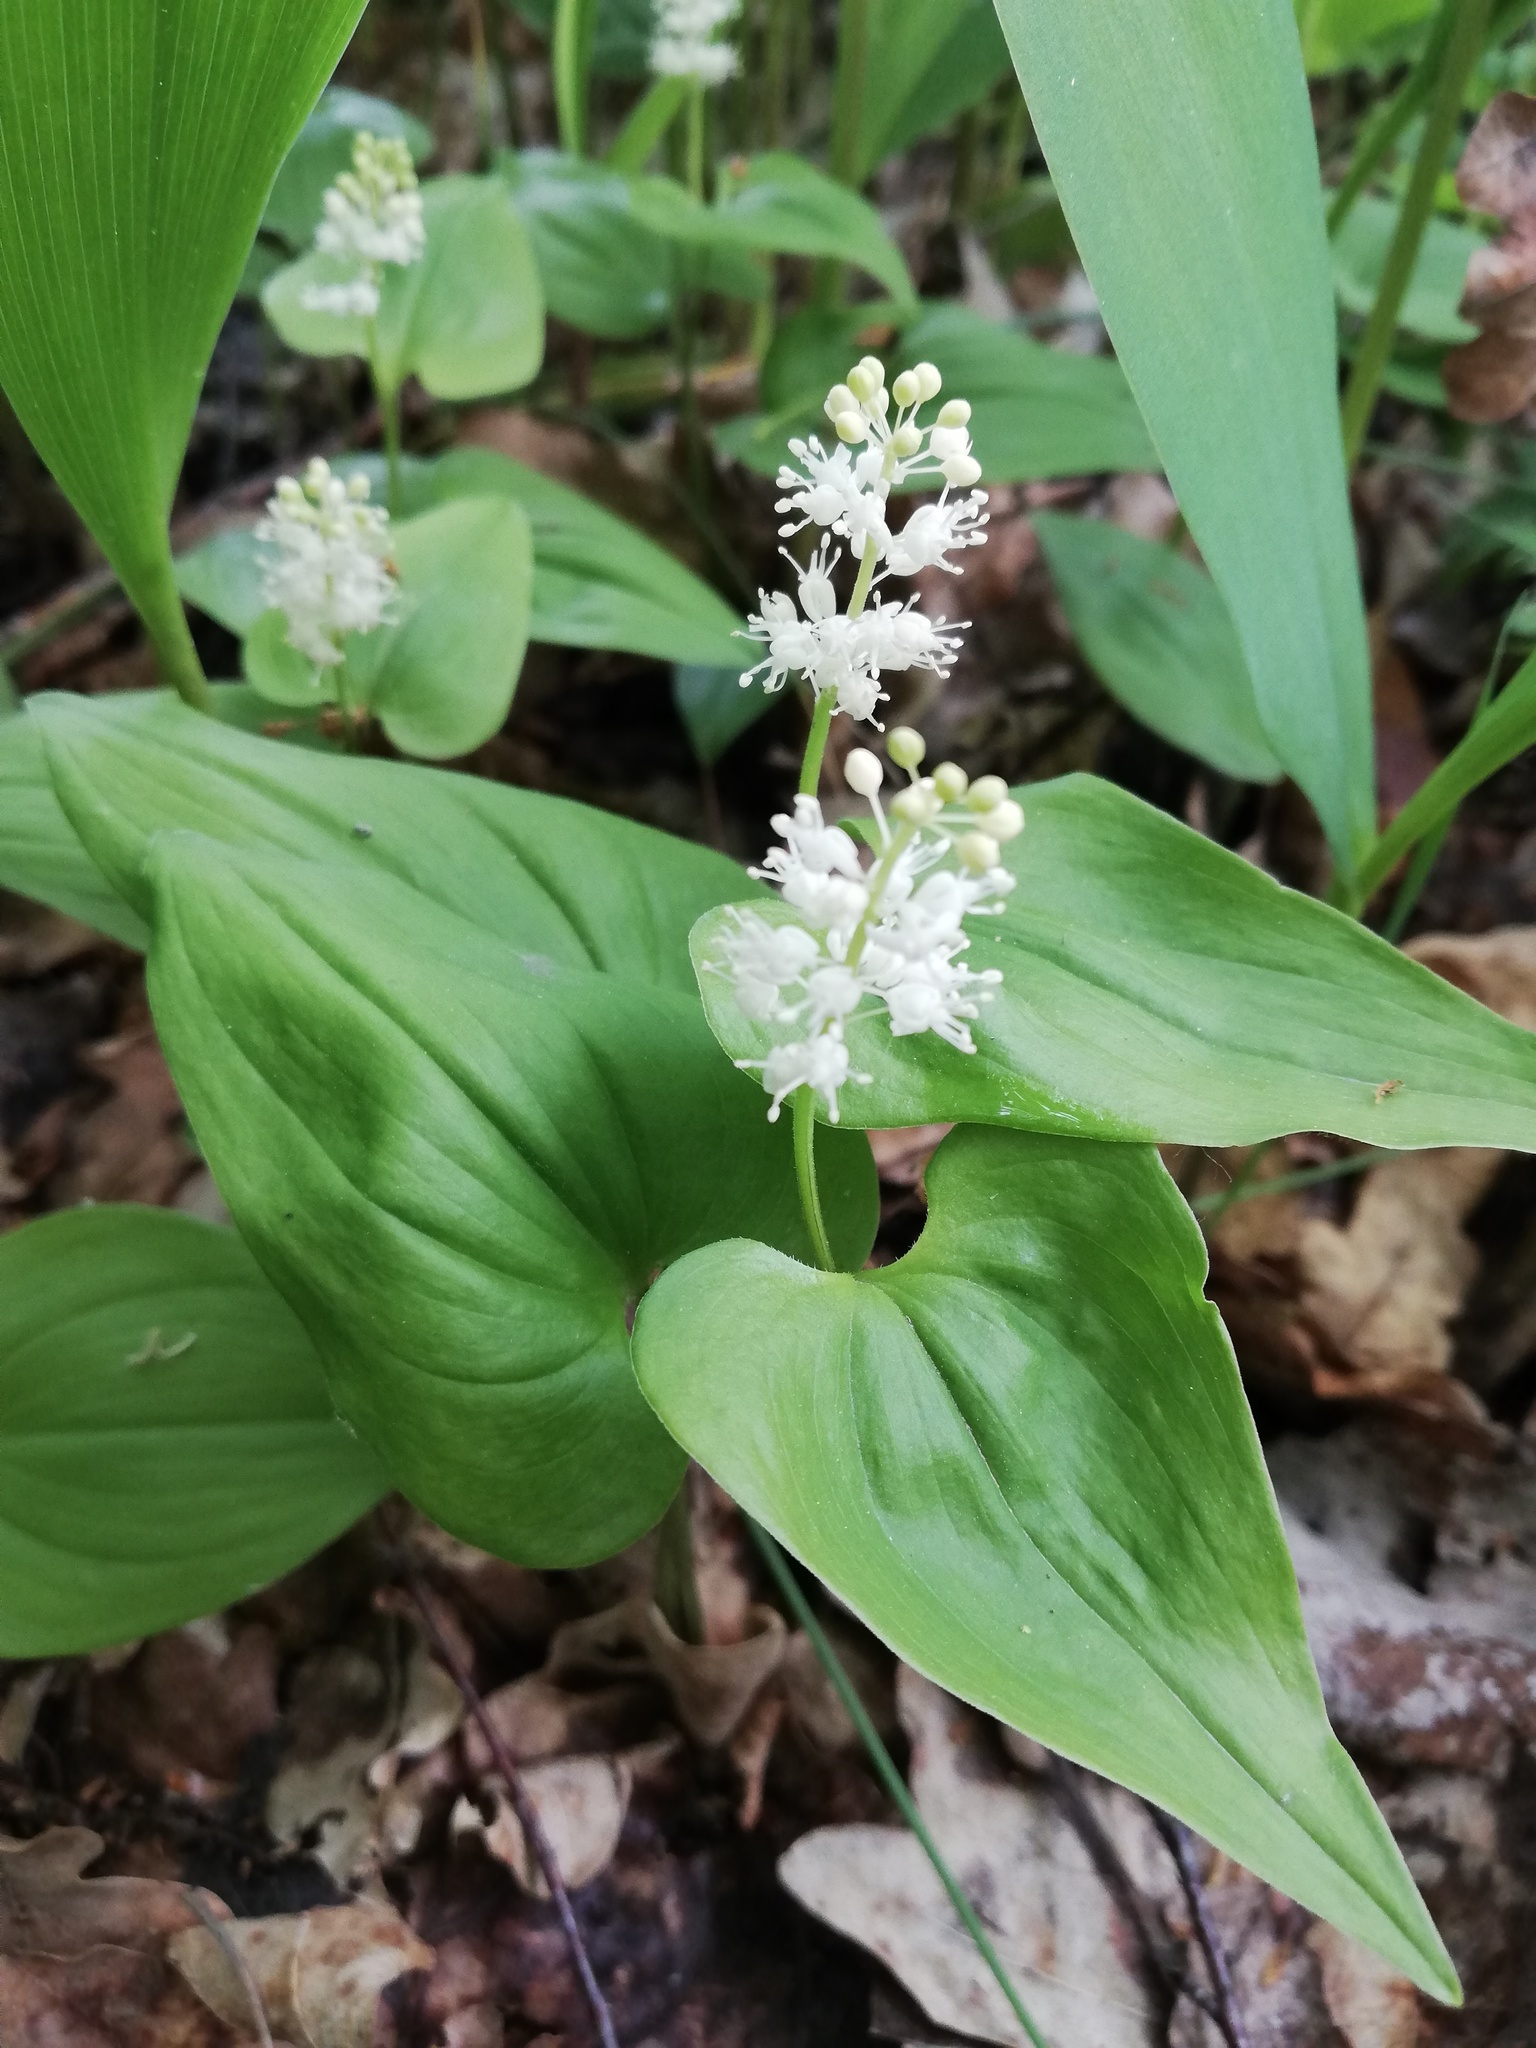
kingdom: Plantae
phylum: Tracheophyta
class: Liliopsida
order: Asparagales
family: Asparagaceae
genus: Maianthemum
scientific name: Maianthemum bifolium
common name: May lily
